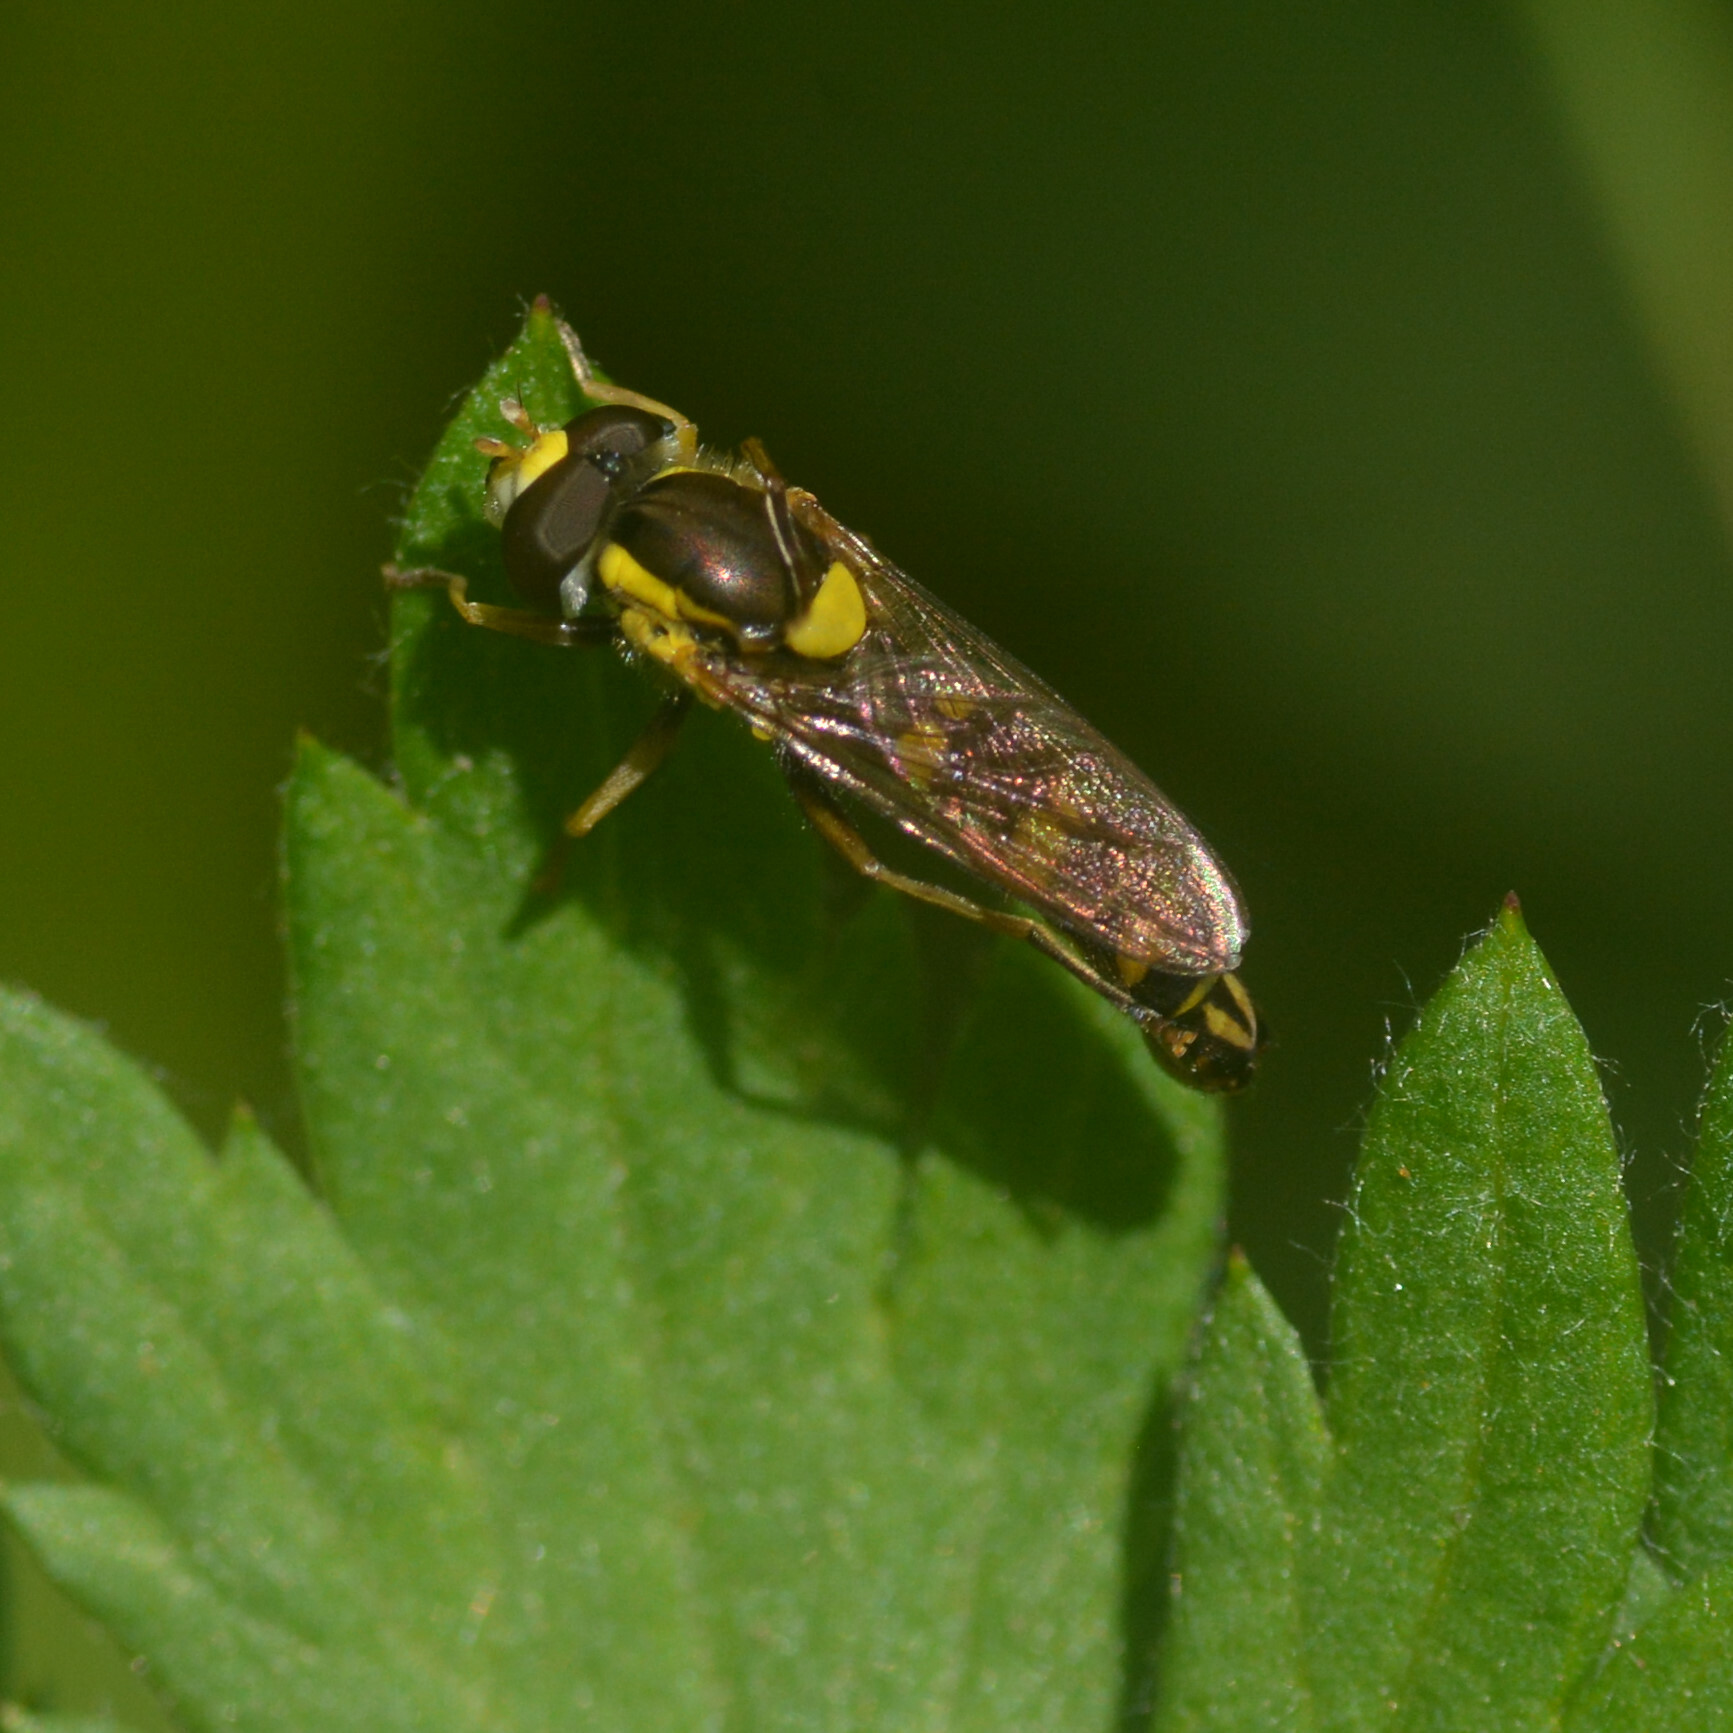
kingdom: Animalia
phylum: Arthropoda
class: Insecta
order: Diptera
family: Syrphidae
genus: Sphaerophoria
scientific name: Sphaerophoria scripta
